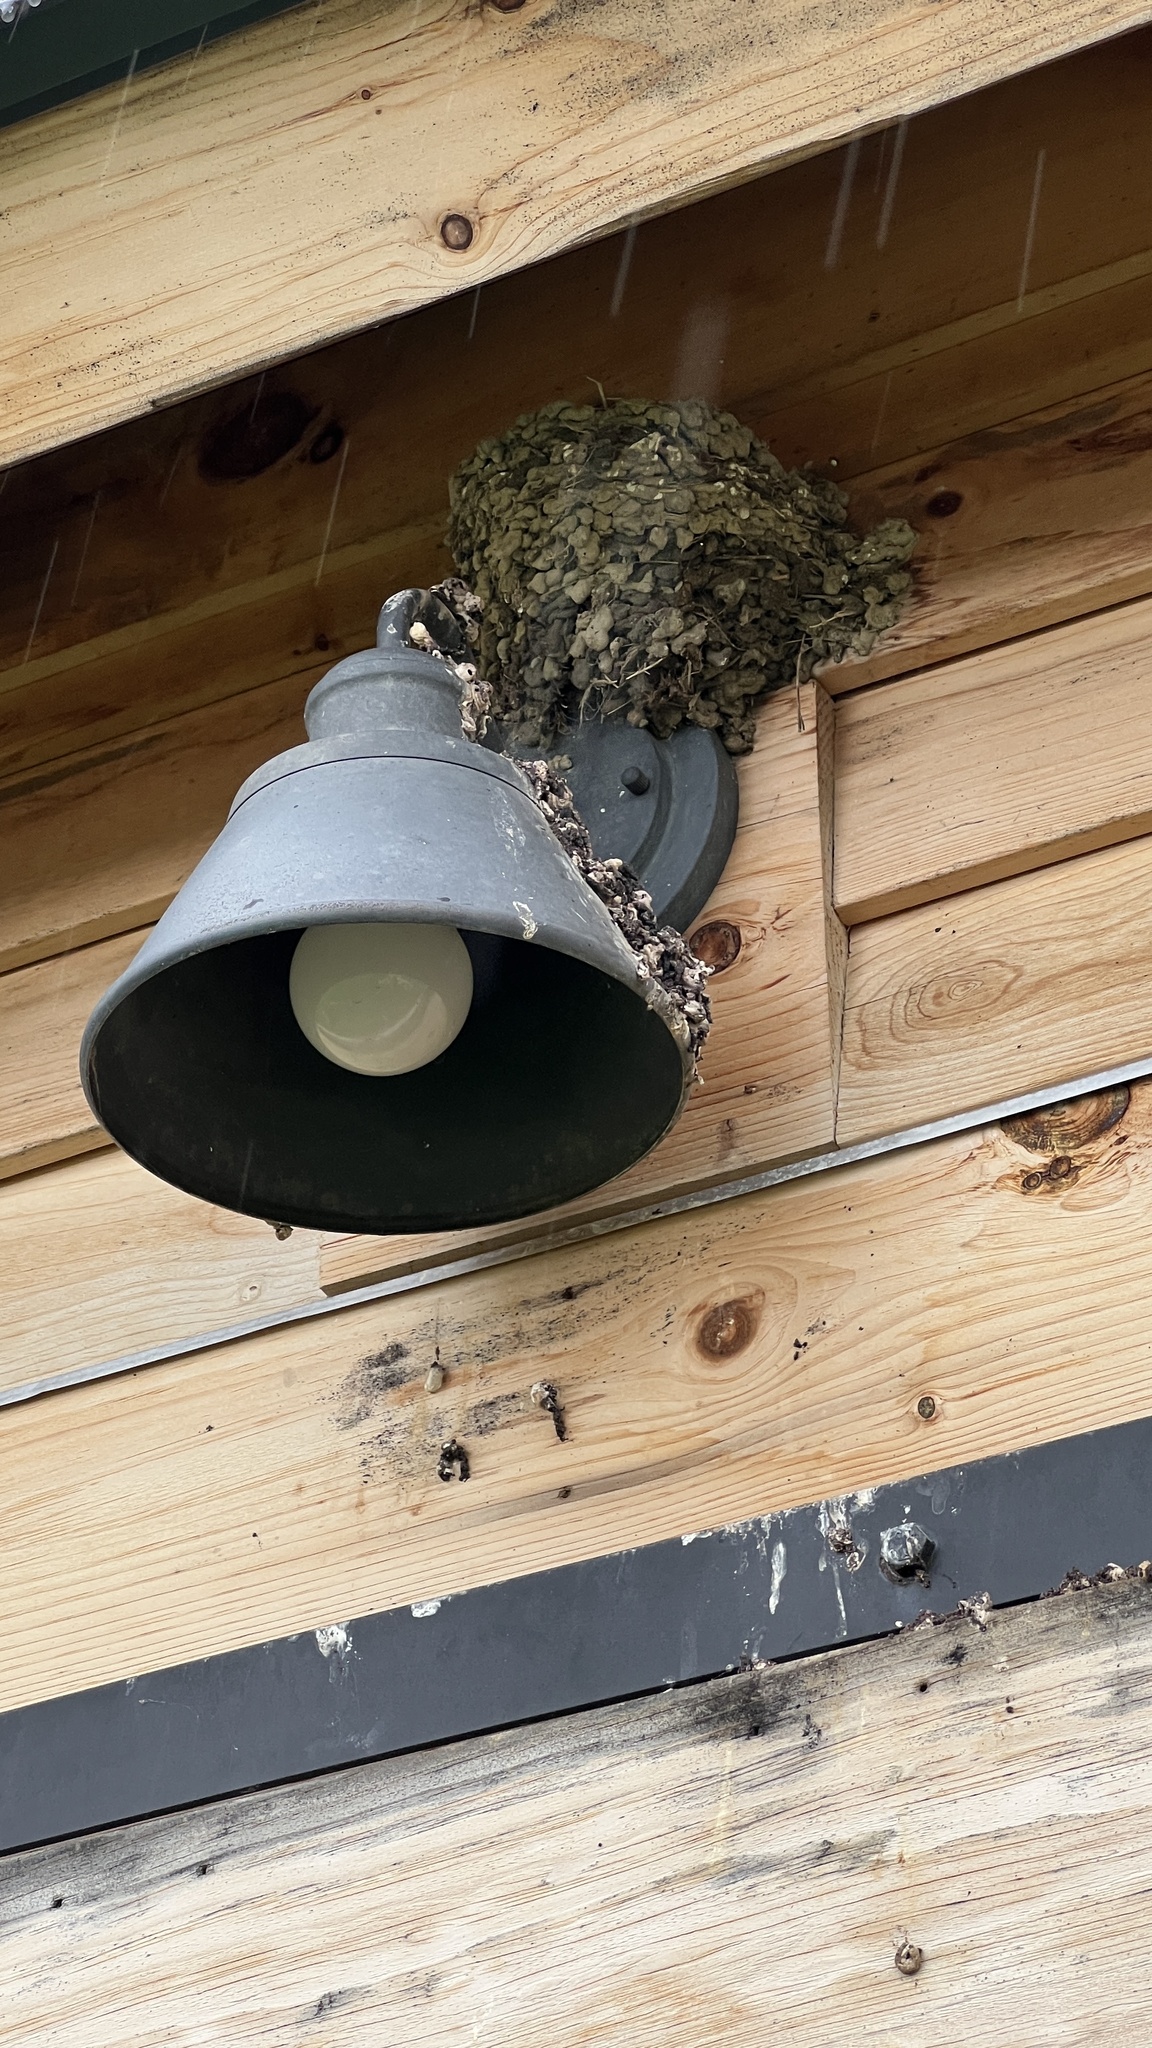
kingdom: Animalia
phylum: Chordata
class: Aves
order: Passeriformes
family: Hirundinidae
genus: Hirundo
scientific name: Hirundo rustica
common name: Barn swallow
